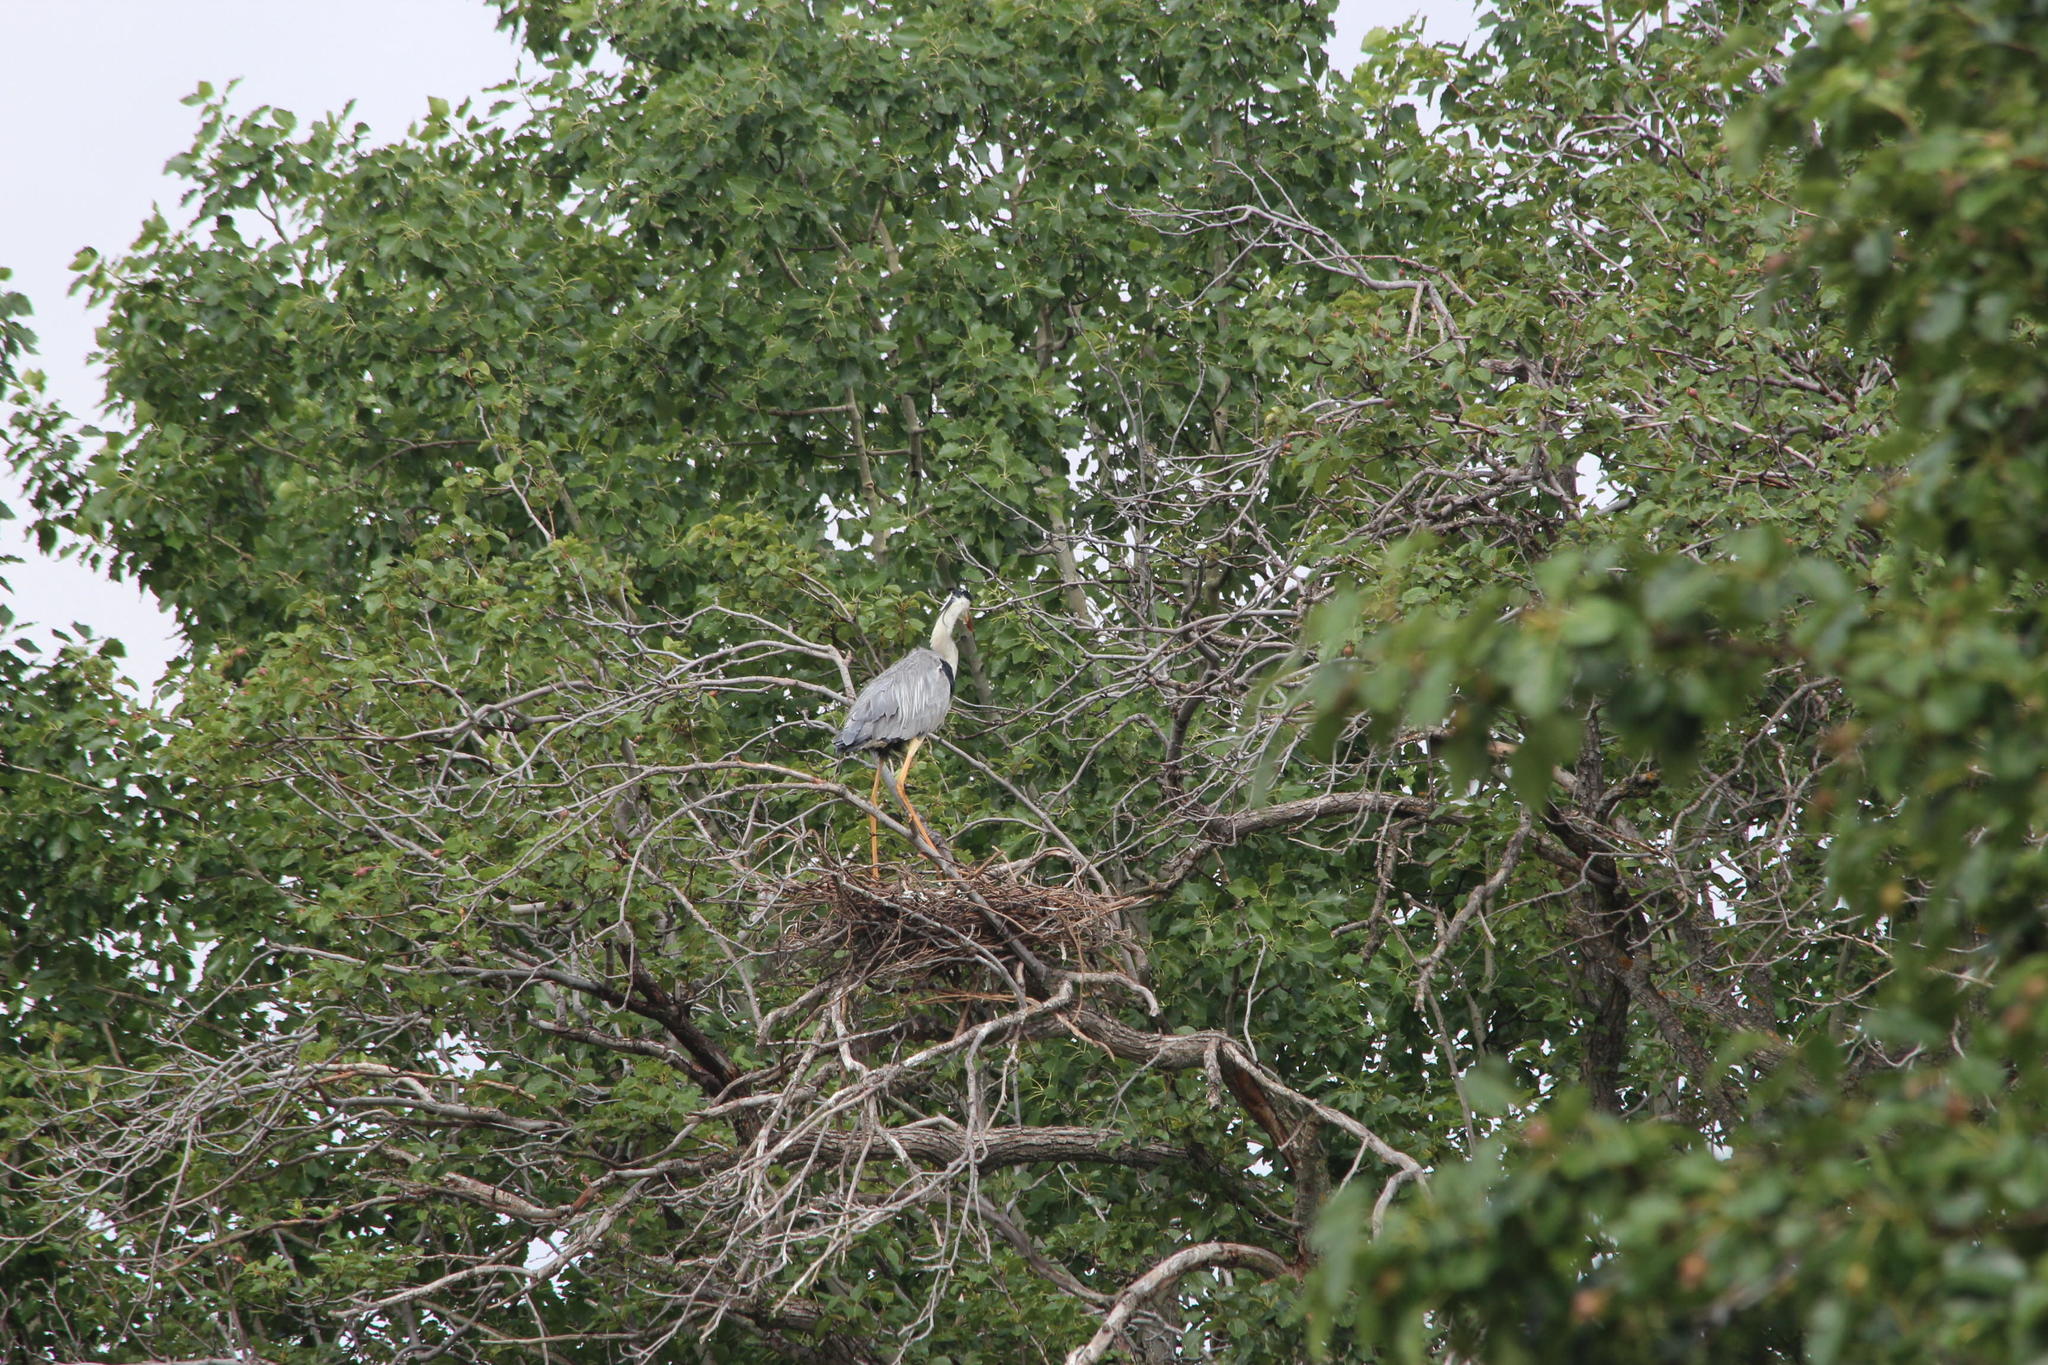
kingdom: Animalia
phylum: Chordata
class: Aves
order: Pelecaniformes
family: Ardeidae
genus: Ardea
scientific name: Ardea cinerea
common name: Grey heron
